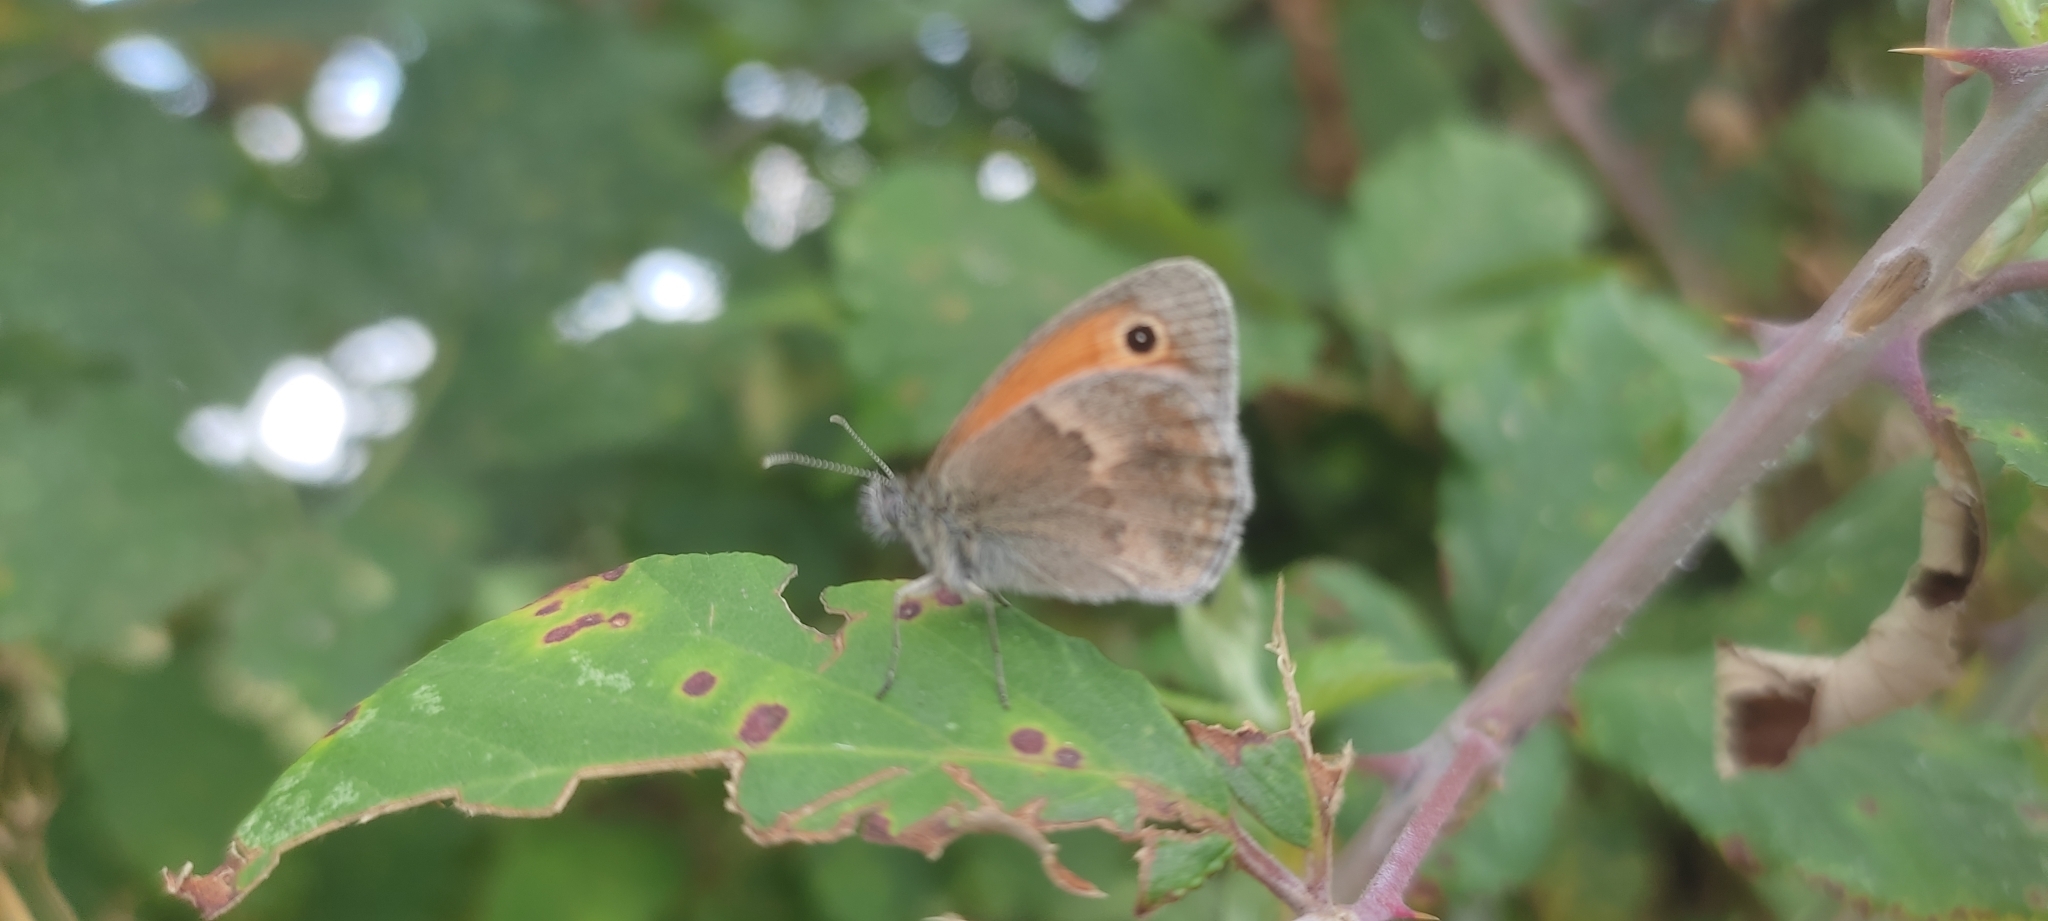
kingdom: Animalia
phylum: Arthropoda
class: Insecta
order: Lepidoptera
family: Nymphalidae
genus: Coenonympha
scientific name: Coenonympha pamphilus
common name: Small heath
